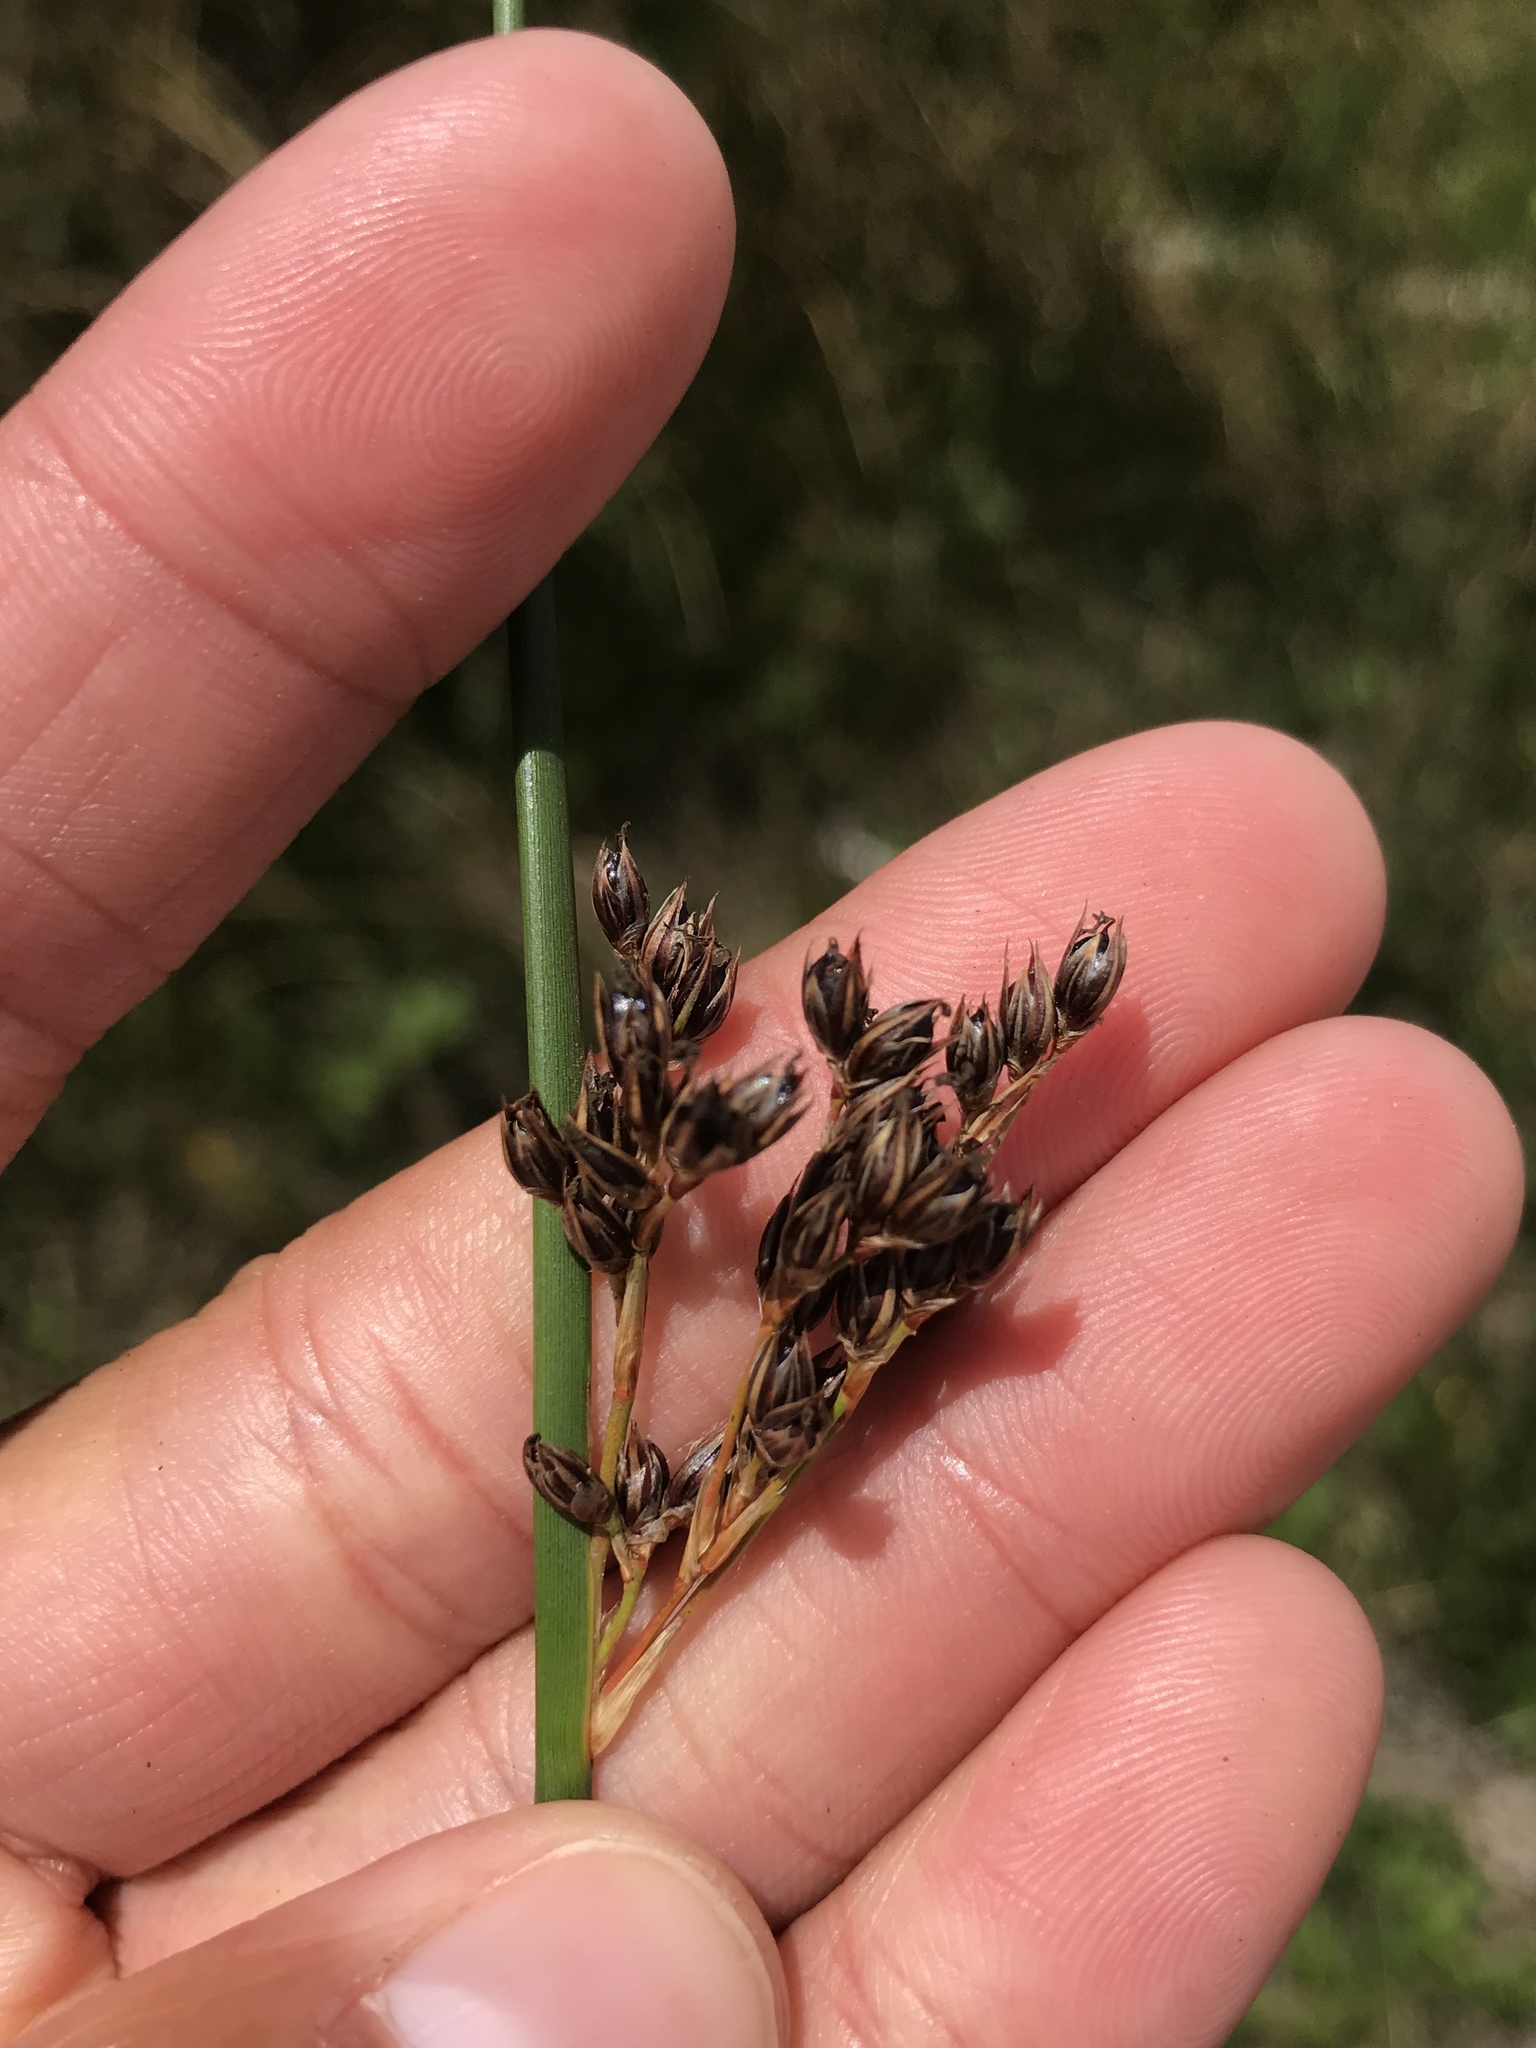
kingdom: Plantae
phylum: Tracheophyta
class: Liliopsida
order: Poales
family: Juncaceae
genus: Juncus
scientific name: Juncus lesueurii
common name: Lesueur's rush
